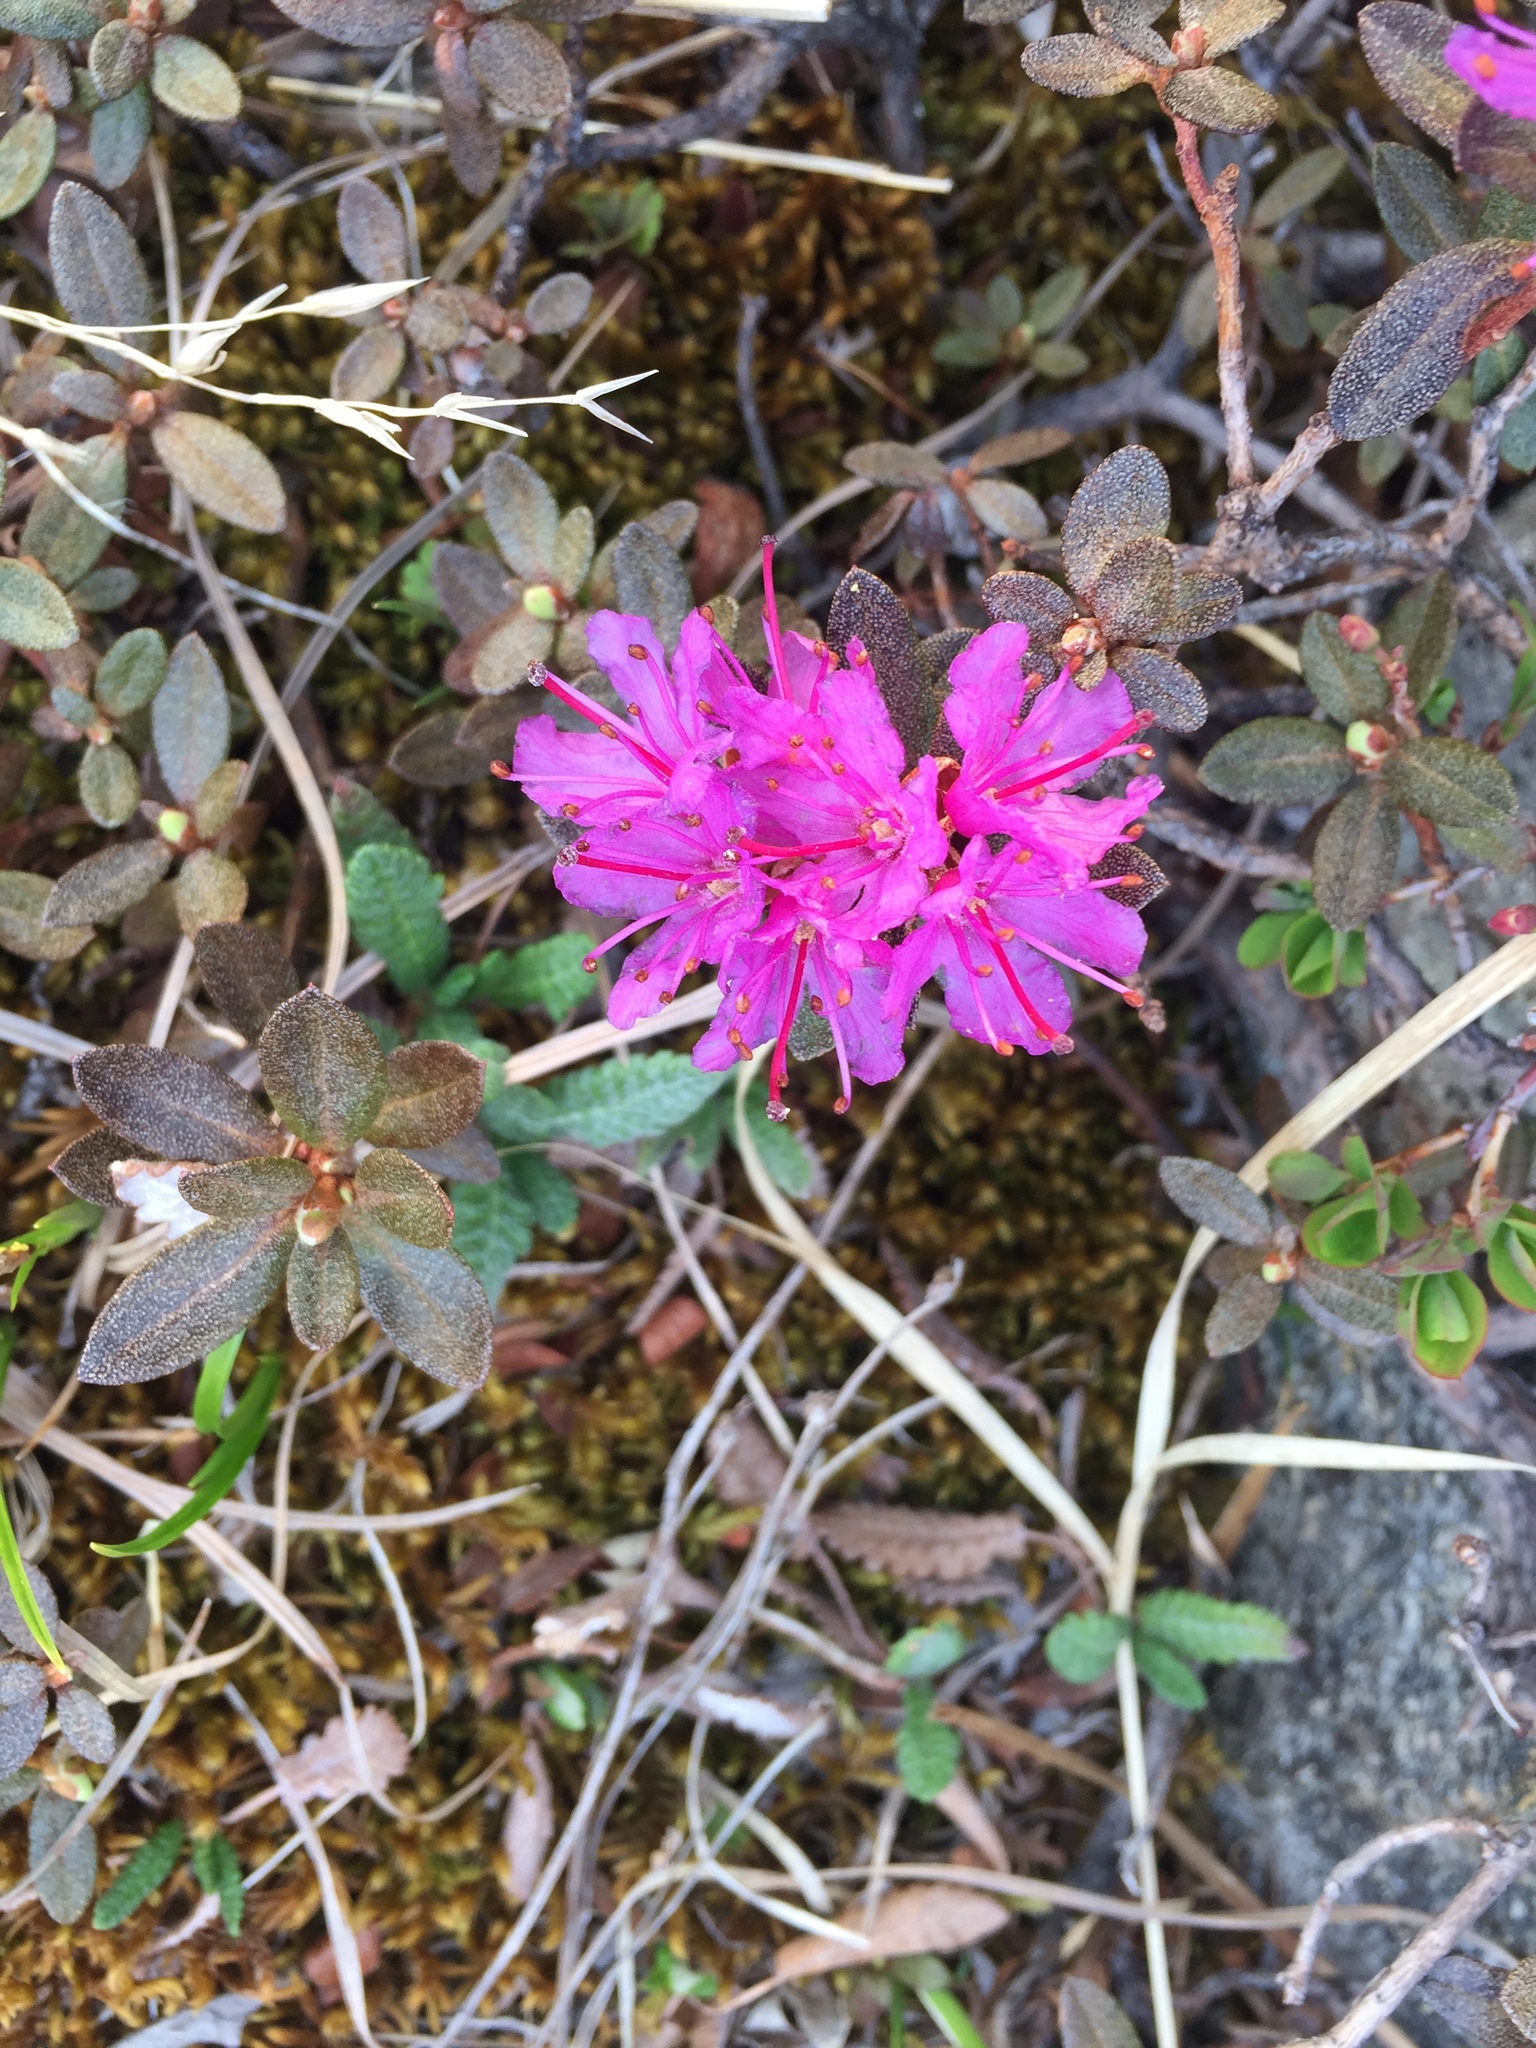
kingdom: Plantae
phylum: Tracheophyta
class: Magnoliopsida
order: Ericales
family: Ericaceae
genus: Rhododendron
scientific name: Rhododendron lapponicum
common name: Lapland rhododendron
